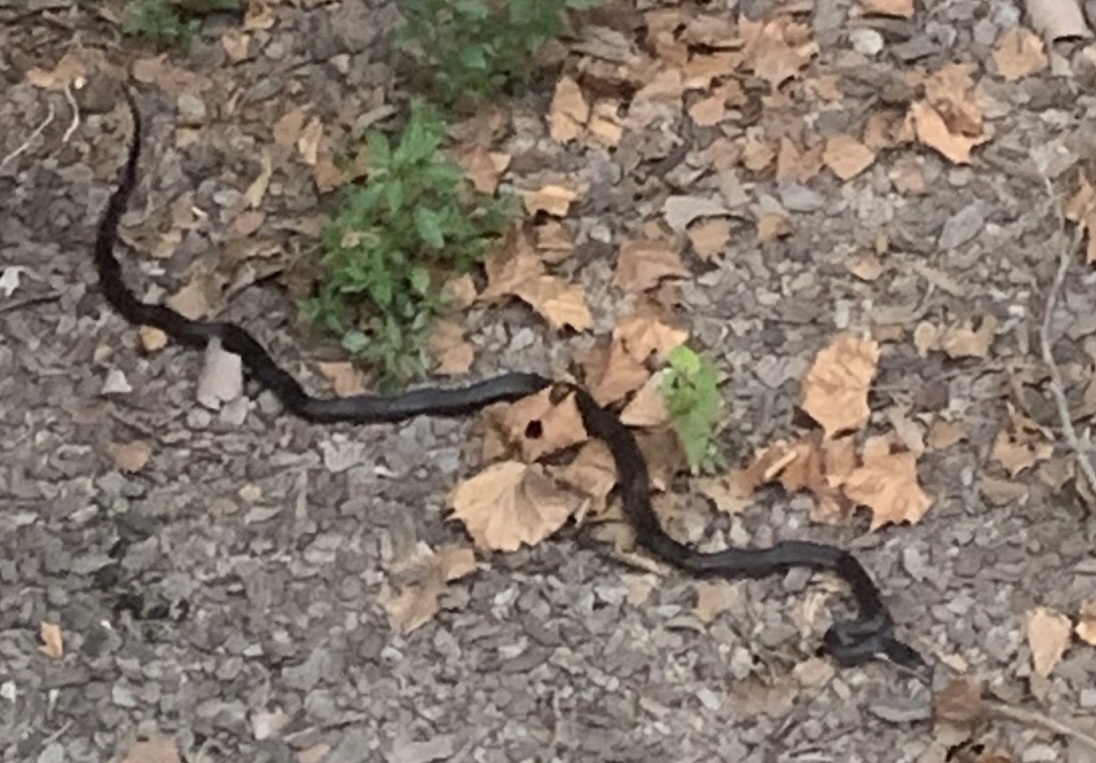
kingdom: Animalia
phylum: Chordata
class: Squamata
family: Colubridae
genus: Pantherophis
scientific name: Pantherophis spiloides
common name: Gray rat snake
